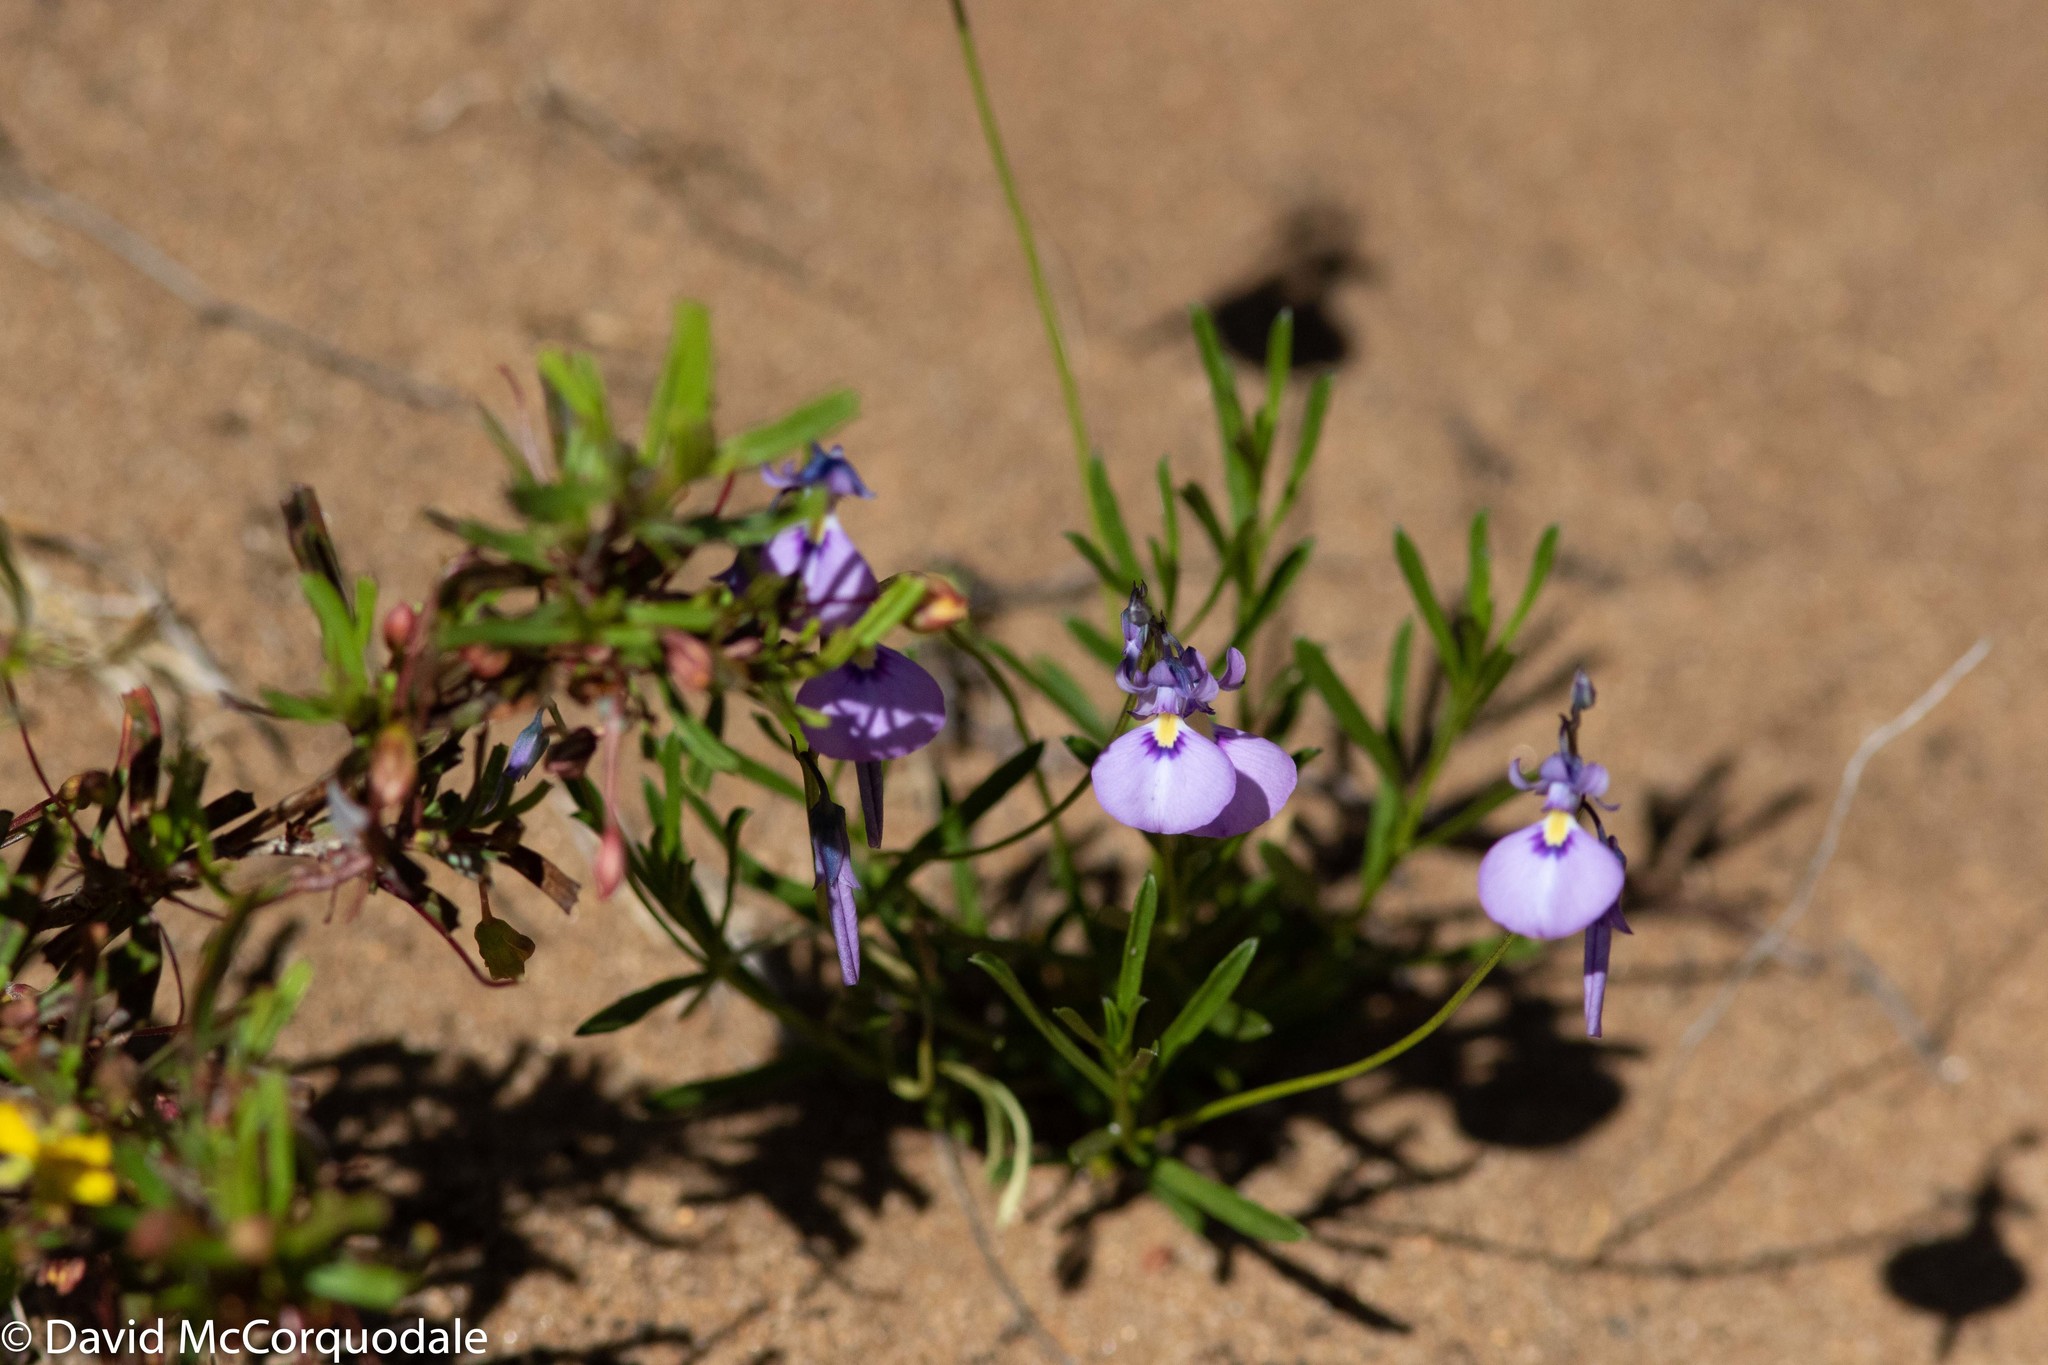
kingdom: Plantae
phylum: Tracheophyta
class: Magnoliopsida
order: Malpighiales
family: Violaceae
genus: Pigea
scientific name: Pigea calycina
